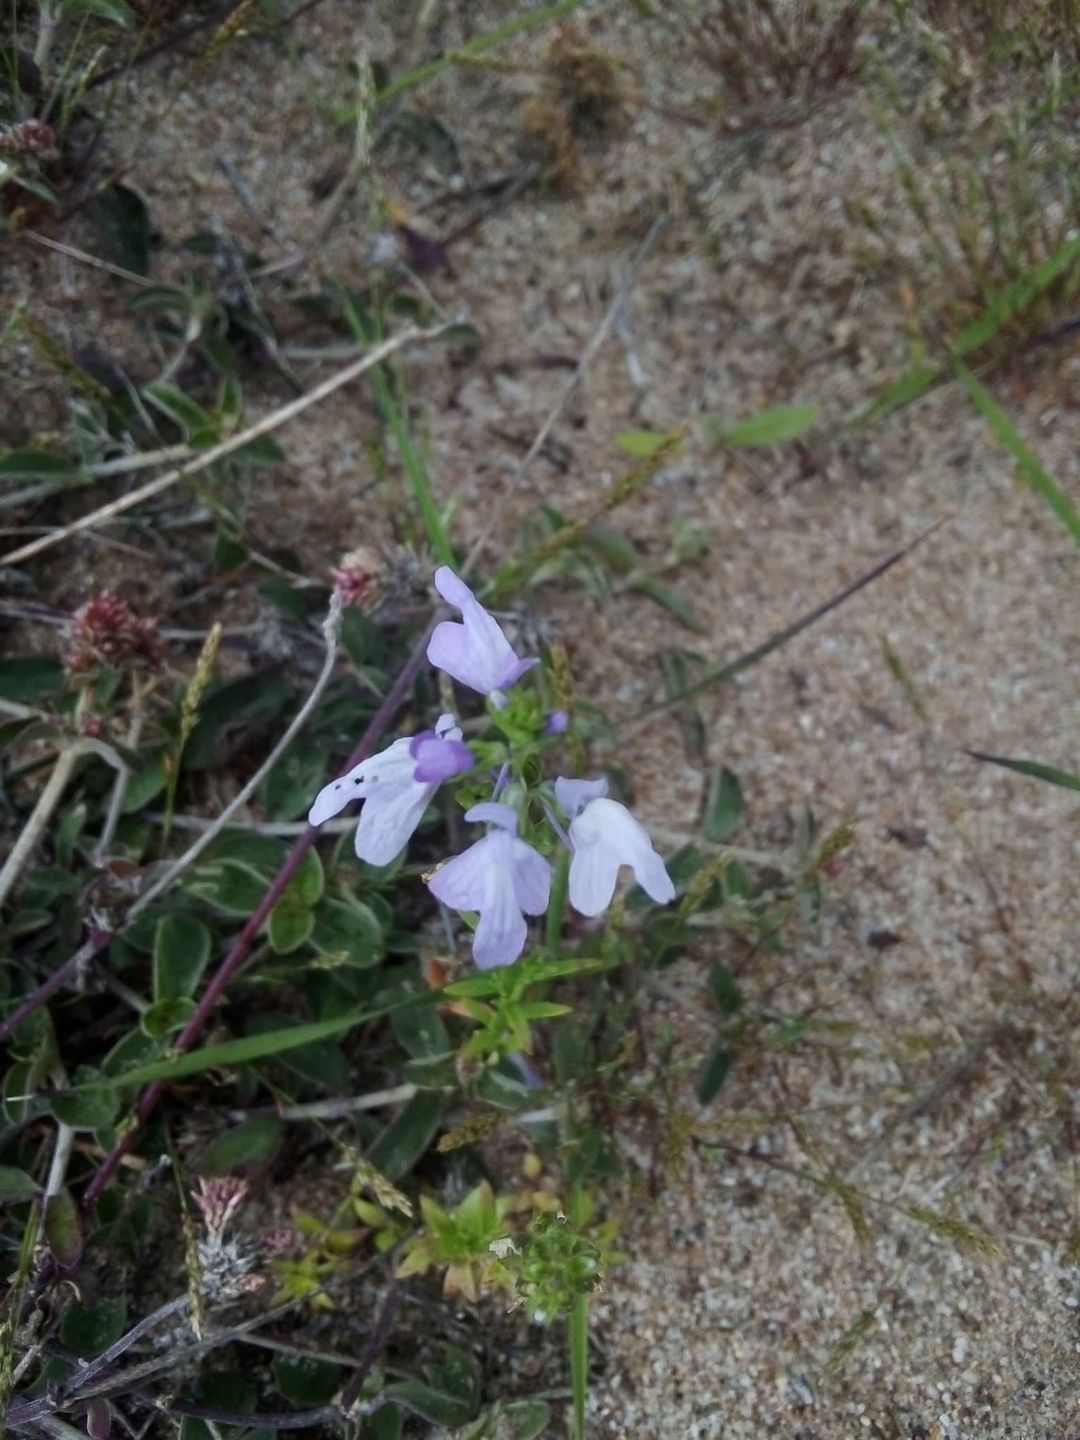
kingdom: Plantae
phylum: Tracheophyta
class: Magnoliopsida
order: Lamiales
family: Plantaginaceae
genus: Nuttallanthus
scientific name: Nuttallanthus texanus
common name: Texas toadflax
